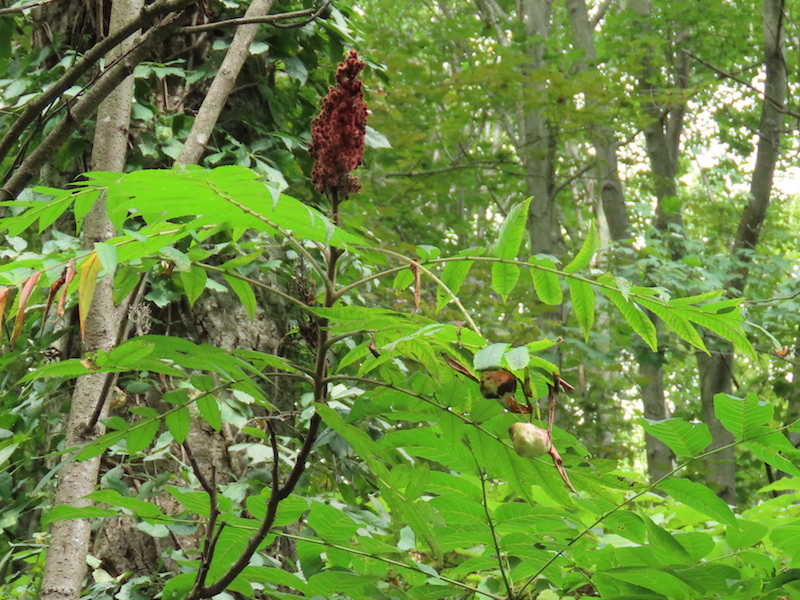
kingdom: Animalia
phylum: Arthropoda
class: Insecta
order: Hemiptera
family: Aphididae
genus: Melaphis
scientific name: Melaphis rhois
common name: Sumac gall aphid
